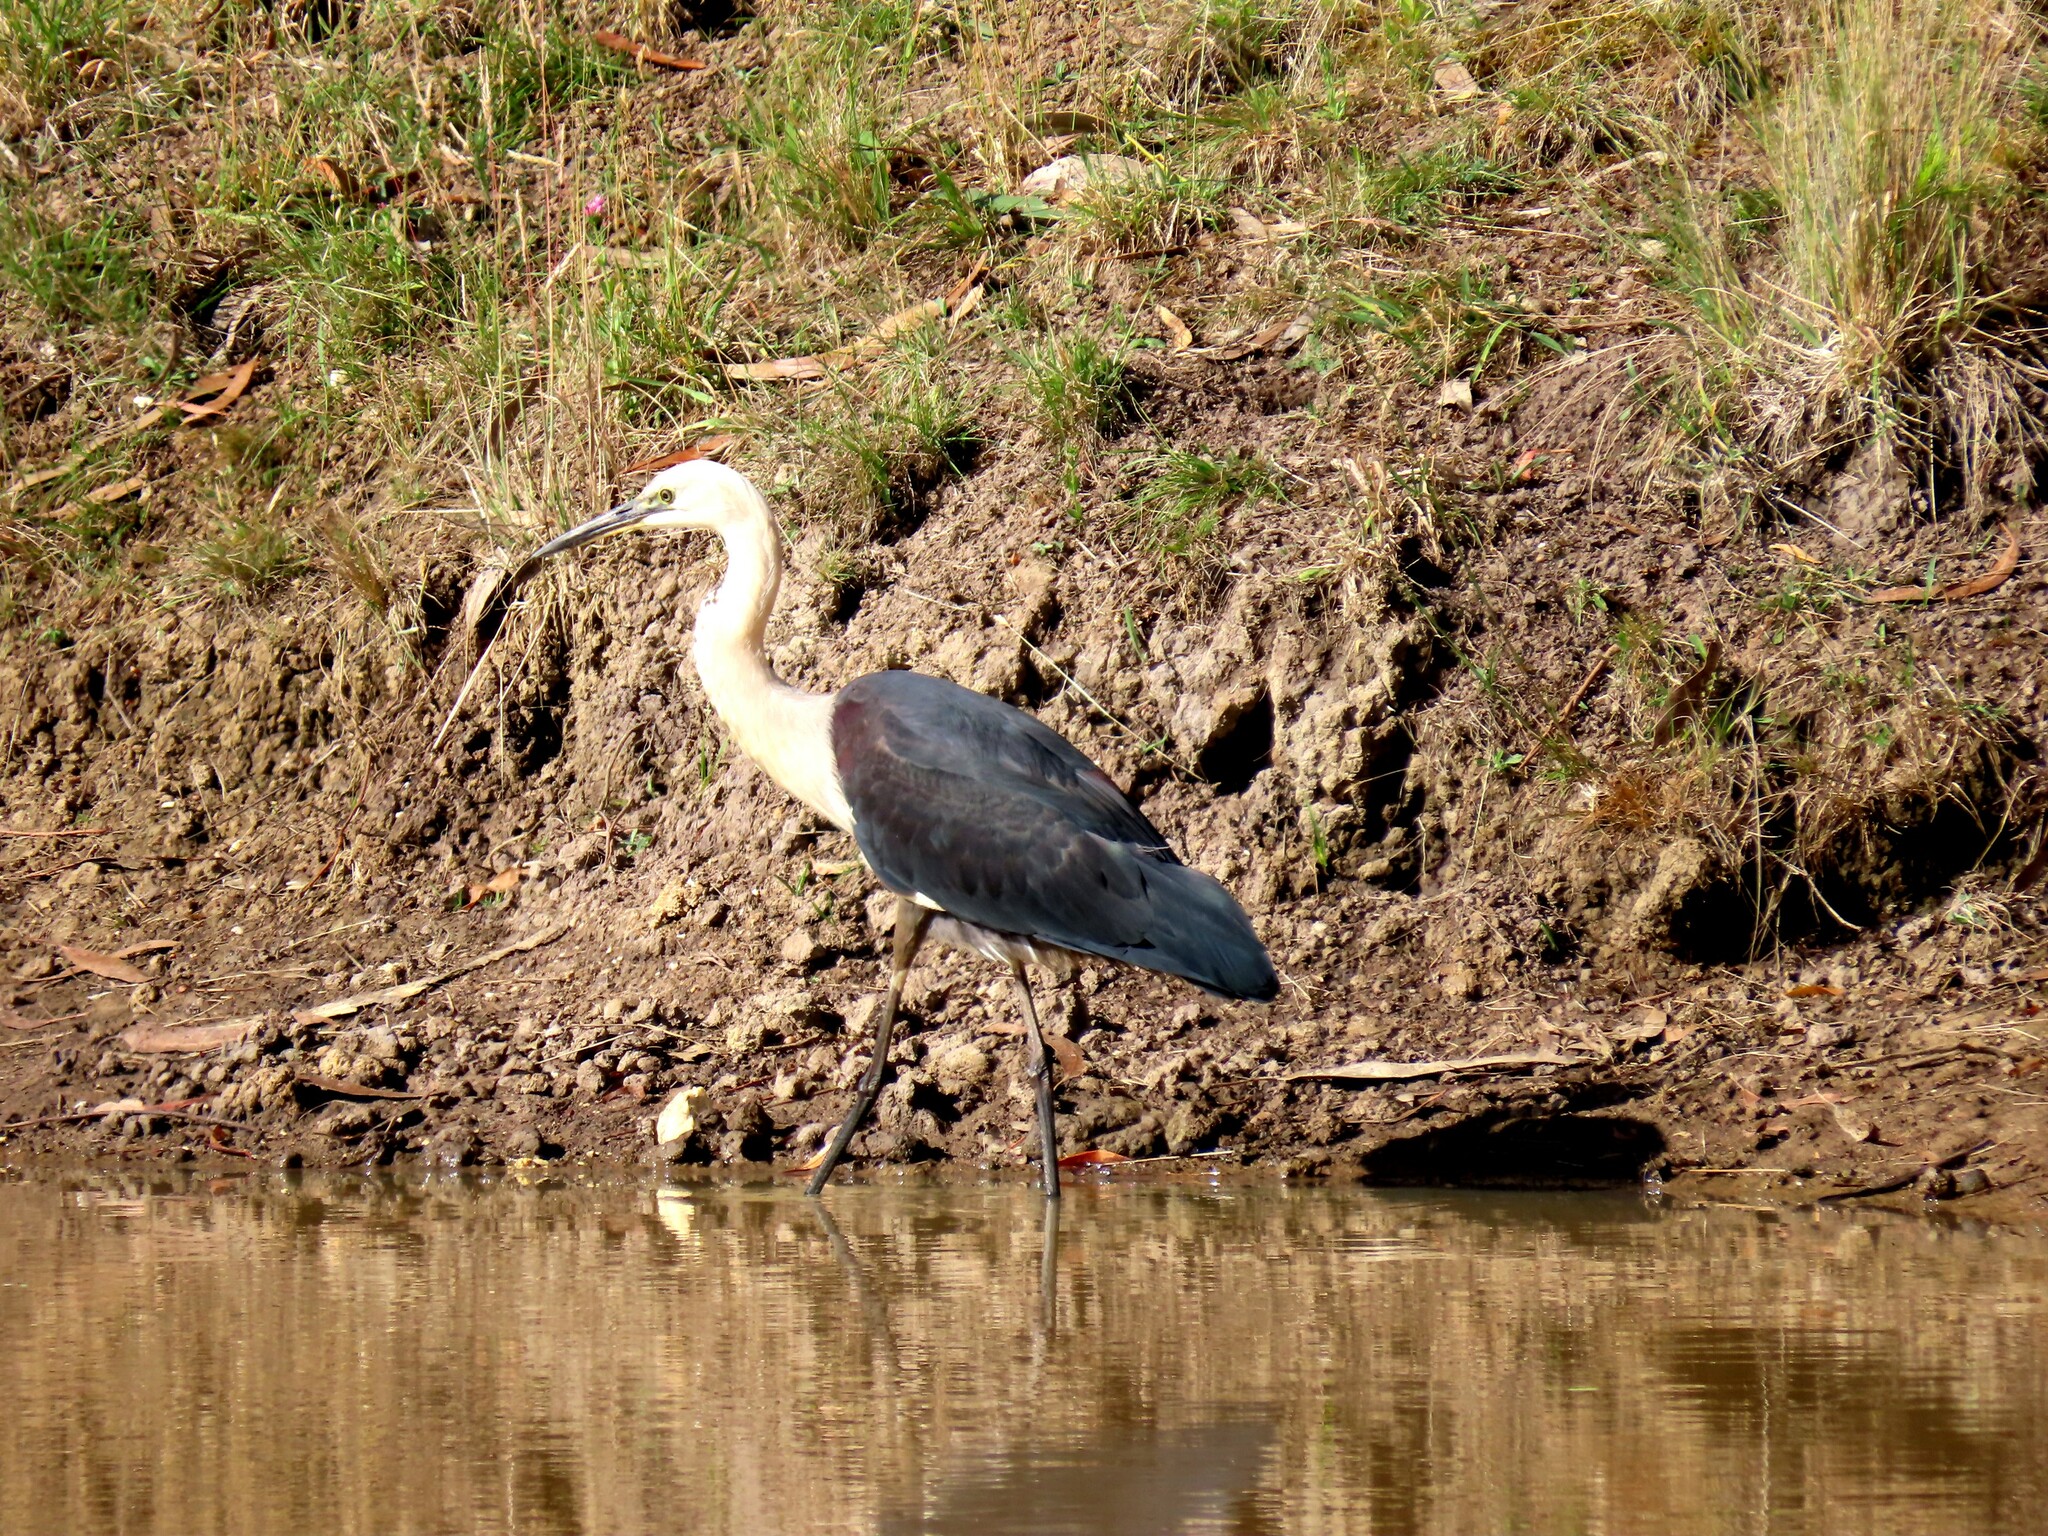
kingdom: Animalia
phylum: Chordata
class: Aves
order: Pelecaniformes
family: Ardeidae
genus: Ardea
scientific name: Ardea pacifica
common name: White-necked heron
